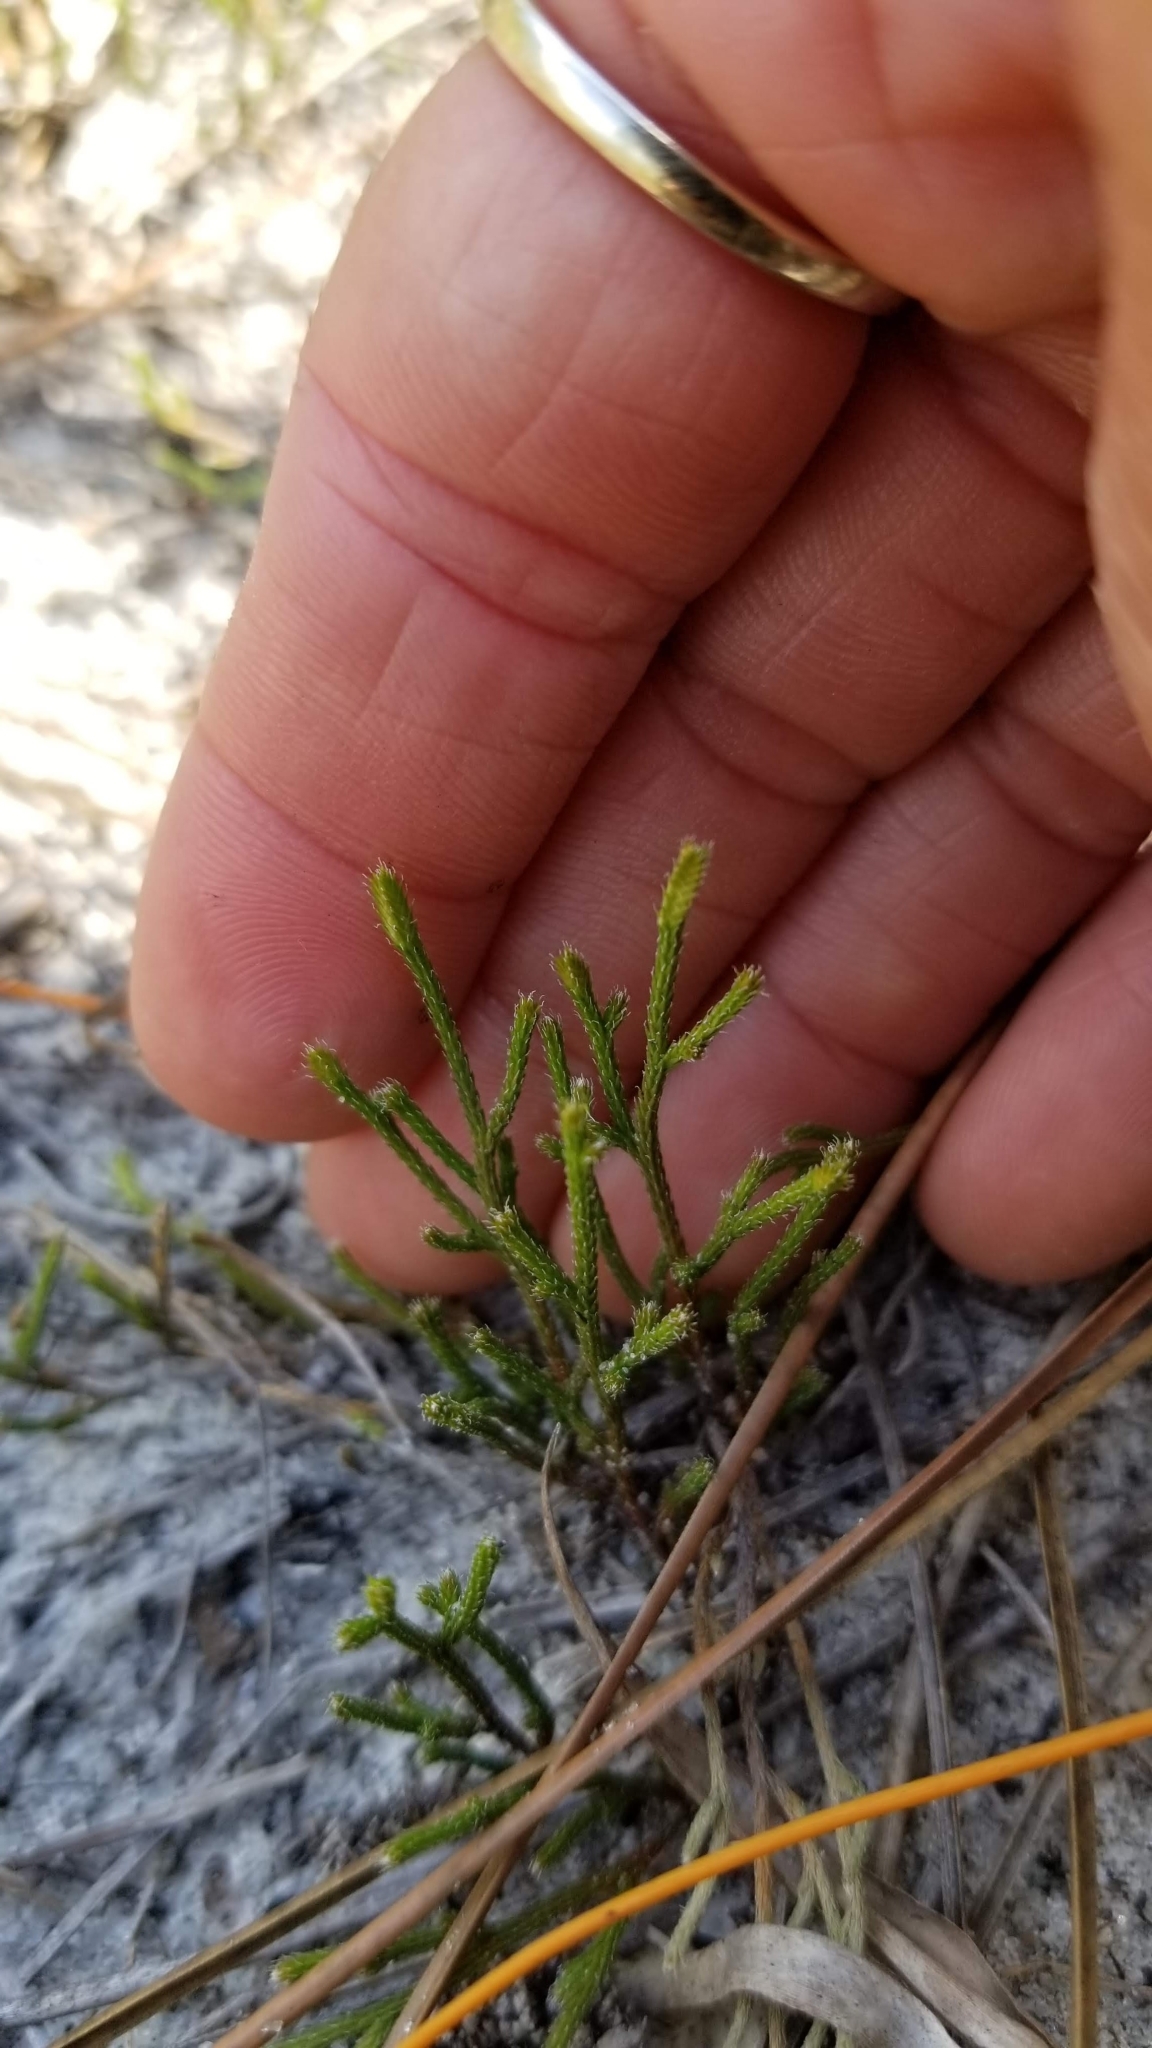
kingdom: Plantae
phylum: Tracheophyta
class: Lycopodiopsida
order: Selaginellales
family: Selaginellaceae
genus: Selaginella
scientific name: Selaginella arenicola
